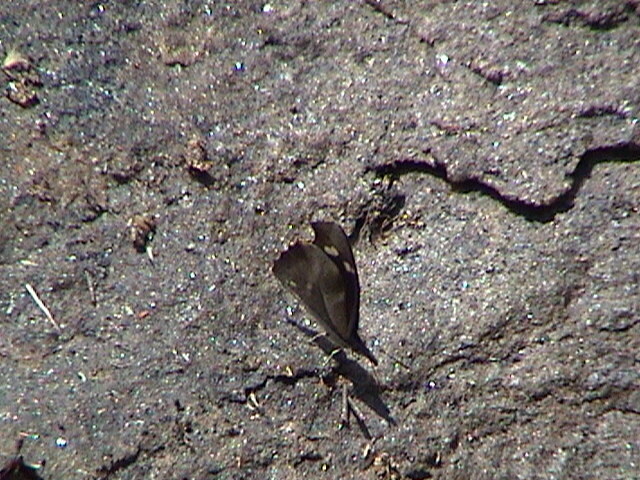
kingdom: Animalia
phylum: Arthropoda
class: Insecta
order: Lepidoptera
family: Nymphalidae
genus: Libythea
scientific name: Libythea myrrha
